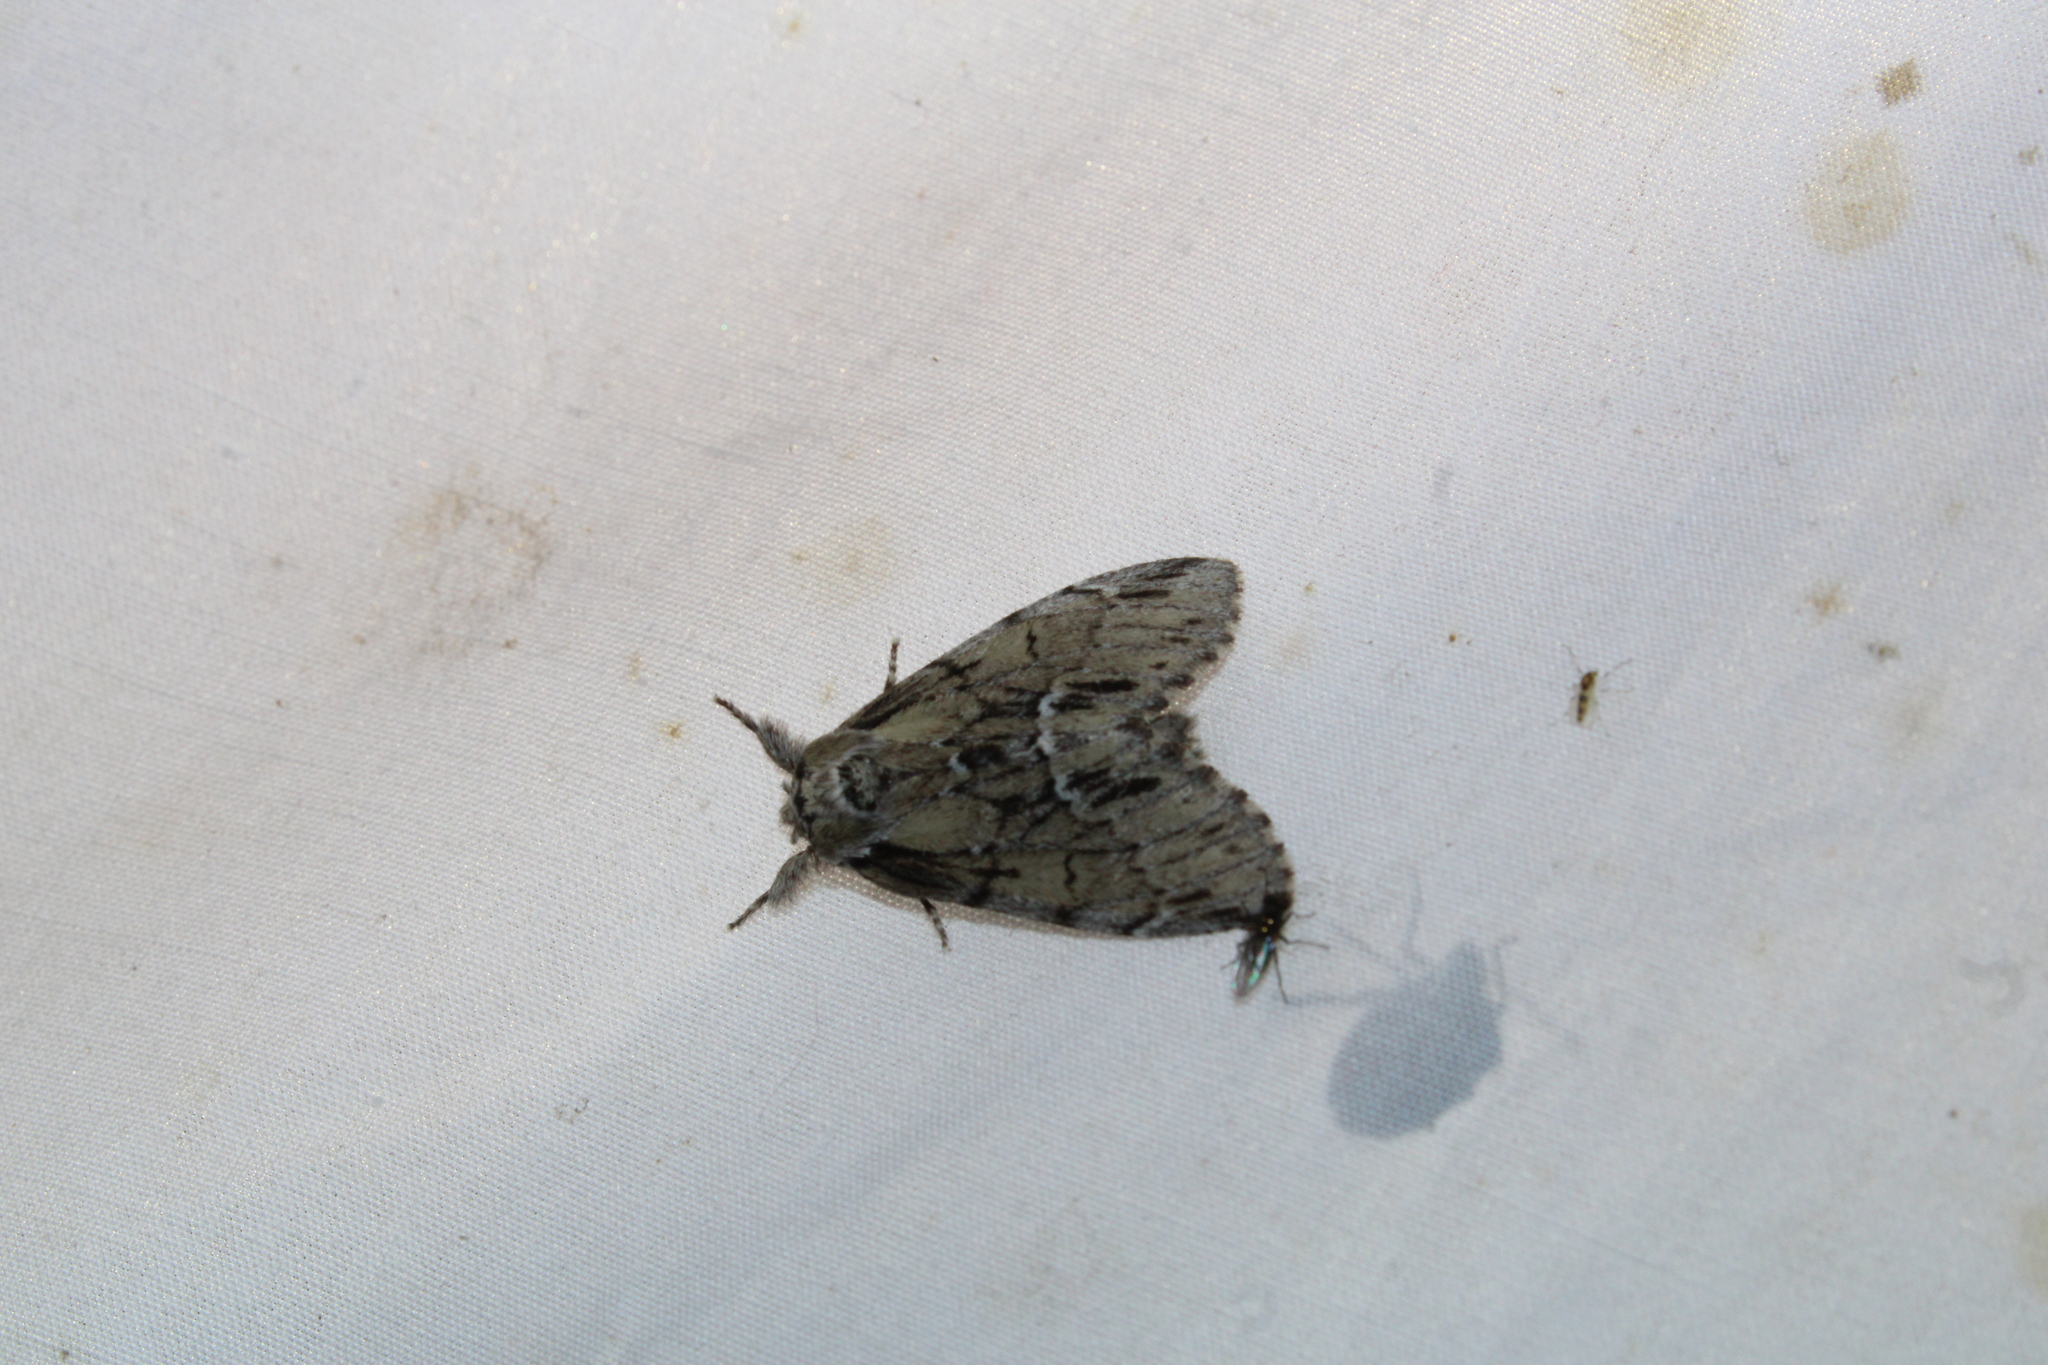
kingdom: Animalia
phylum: Arthropoda
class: Insecta
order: Lepidoptera
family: Notodontidae
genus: Paraeschra
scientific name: Paraeschra georgica
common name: Georgian prominent
